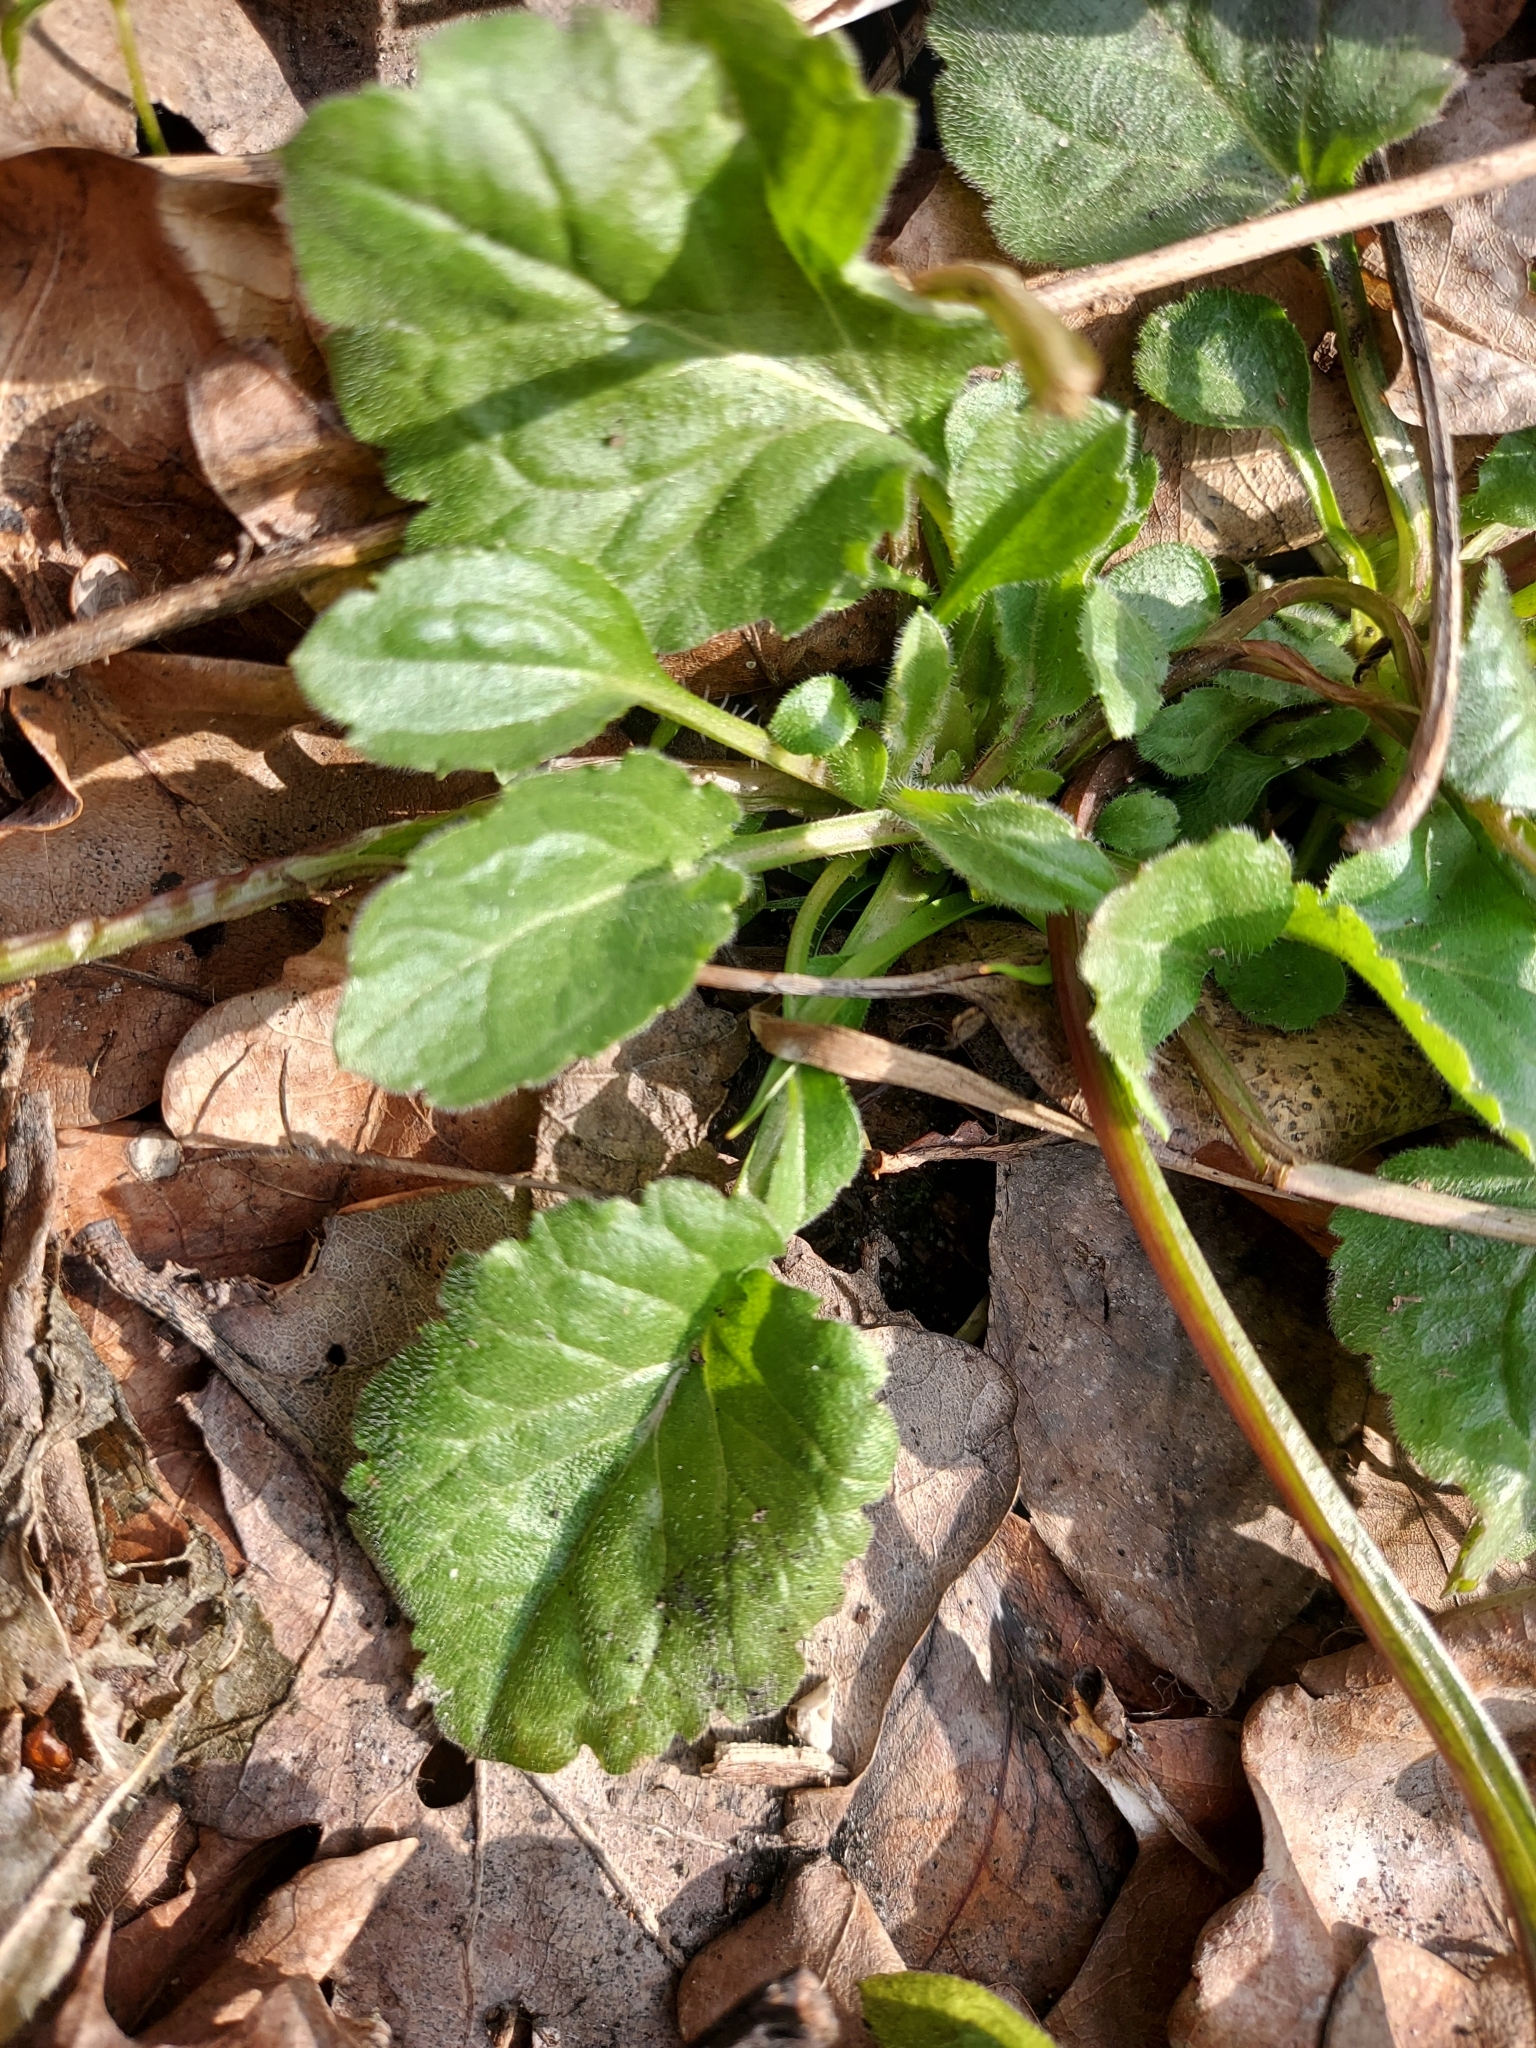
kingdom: Plantae
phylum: Tracheophyta
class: Magnoliopsida
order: Asterales
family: Asteraceae
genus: Erigeron
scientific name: Erigeron annuus
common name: Tall fleabane
